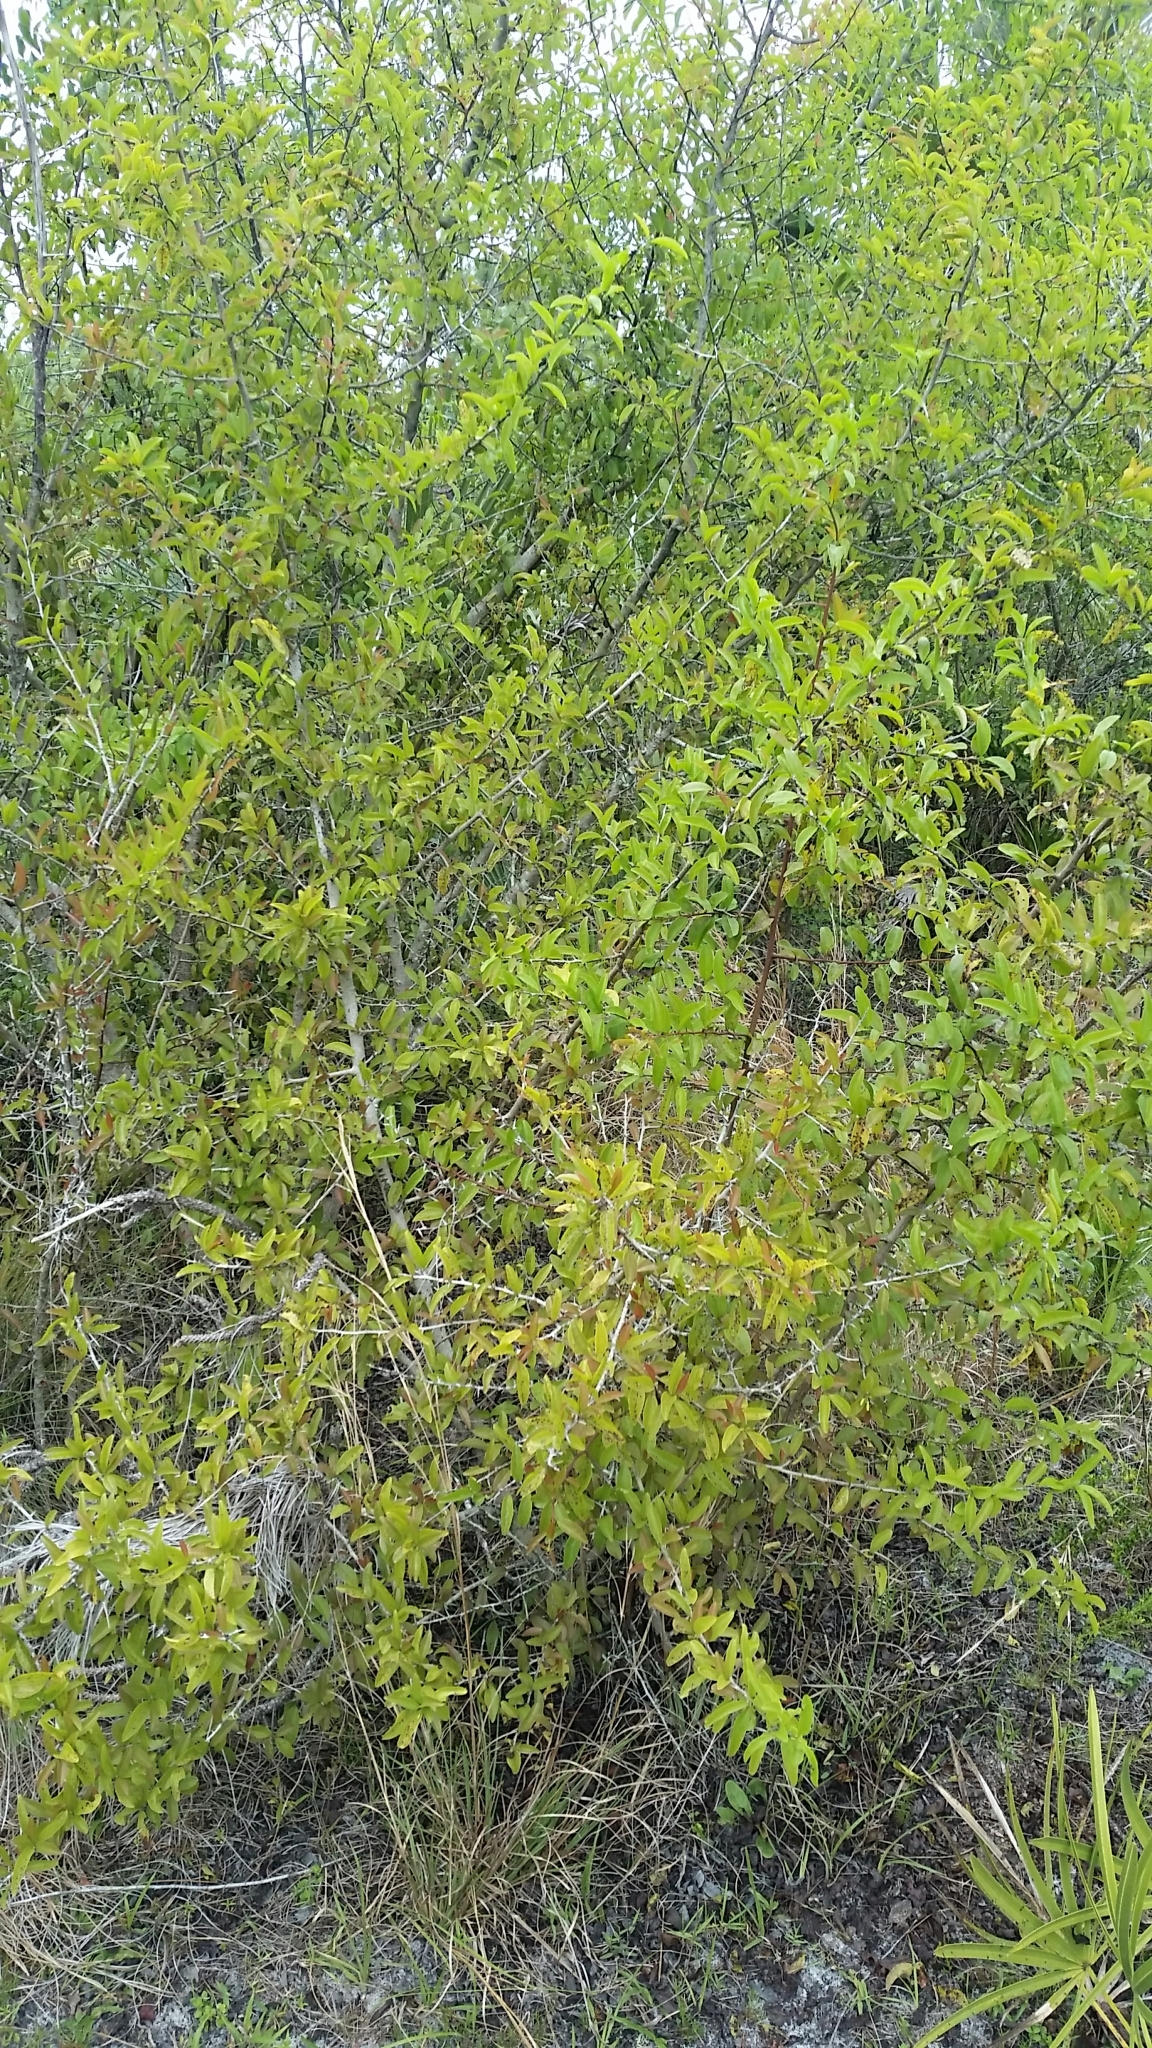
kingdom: Plantae
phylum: Tracheophyta
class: Magnoliopsida
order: Santalales
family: Ximeniaceae
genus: Ximenia
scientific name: Ximenia americana
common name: Tallowwood
